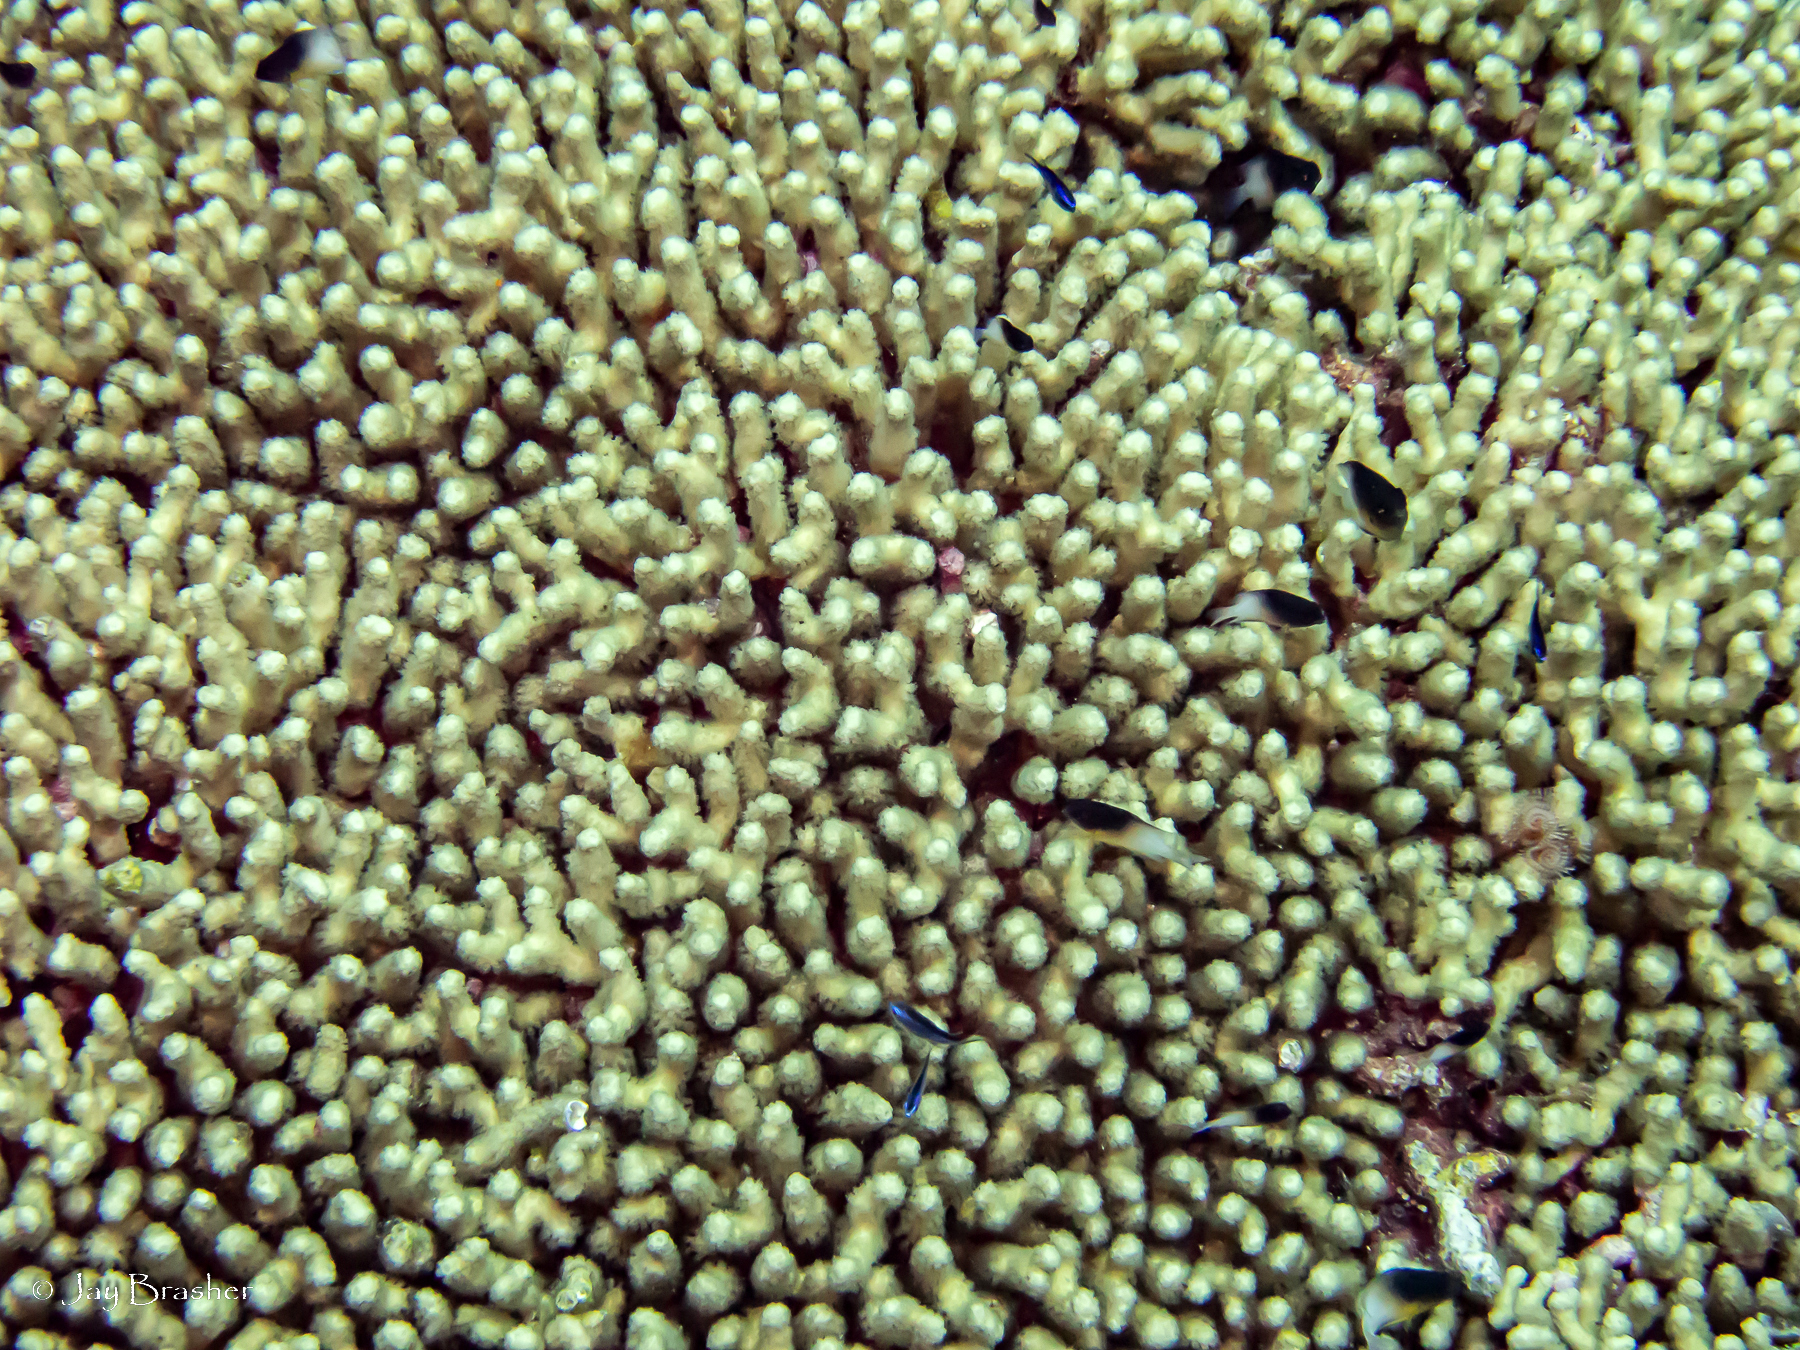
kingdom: Animalia
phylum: Cnidaria
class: Anthozoa
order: Scleractinia
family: Pocilloporidae
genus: Madracis
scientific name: Madracis auretenra
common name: Yellow pencil coral
